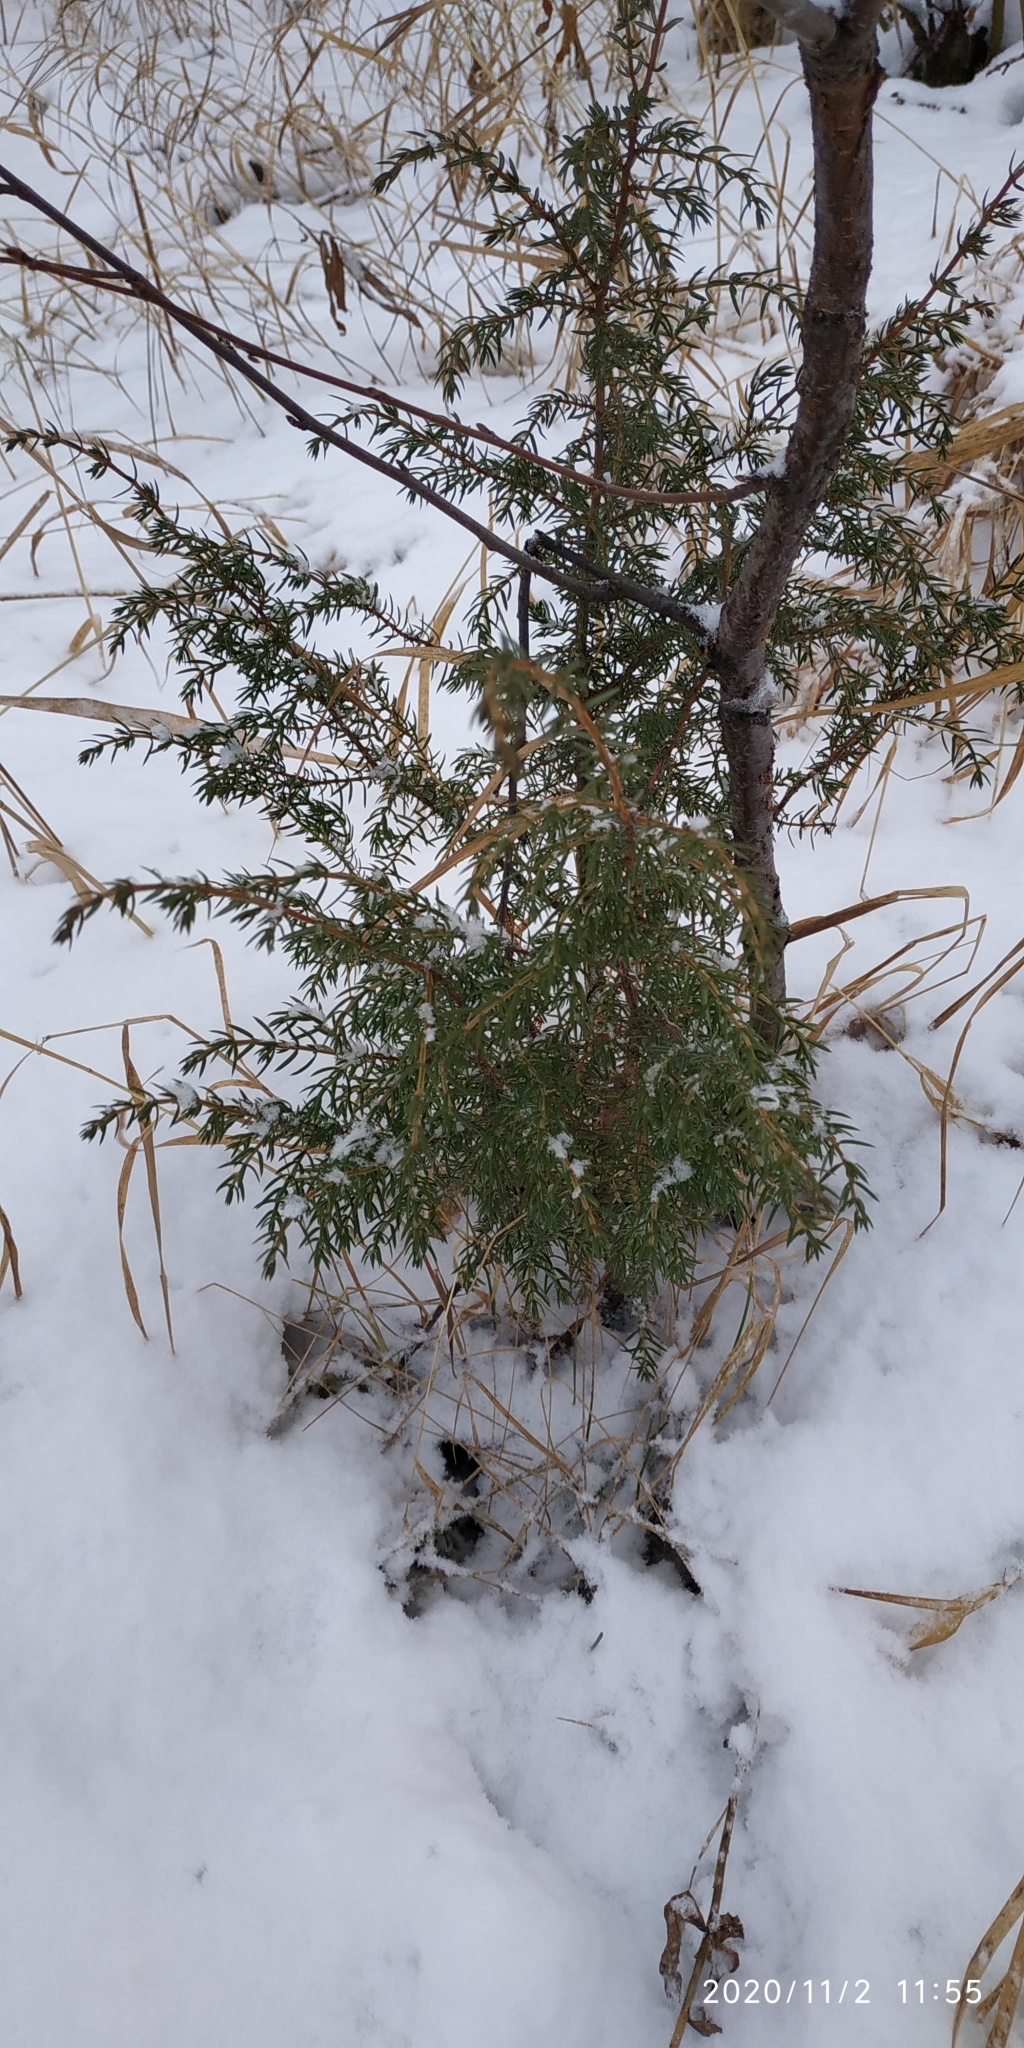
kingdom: Plantae
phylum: Tracheophyta
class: Pinopsida
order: Pinales
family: Cupressaceae
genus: Juniperus
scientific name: Juniperus communis
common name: Common juniper
